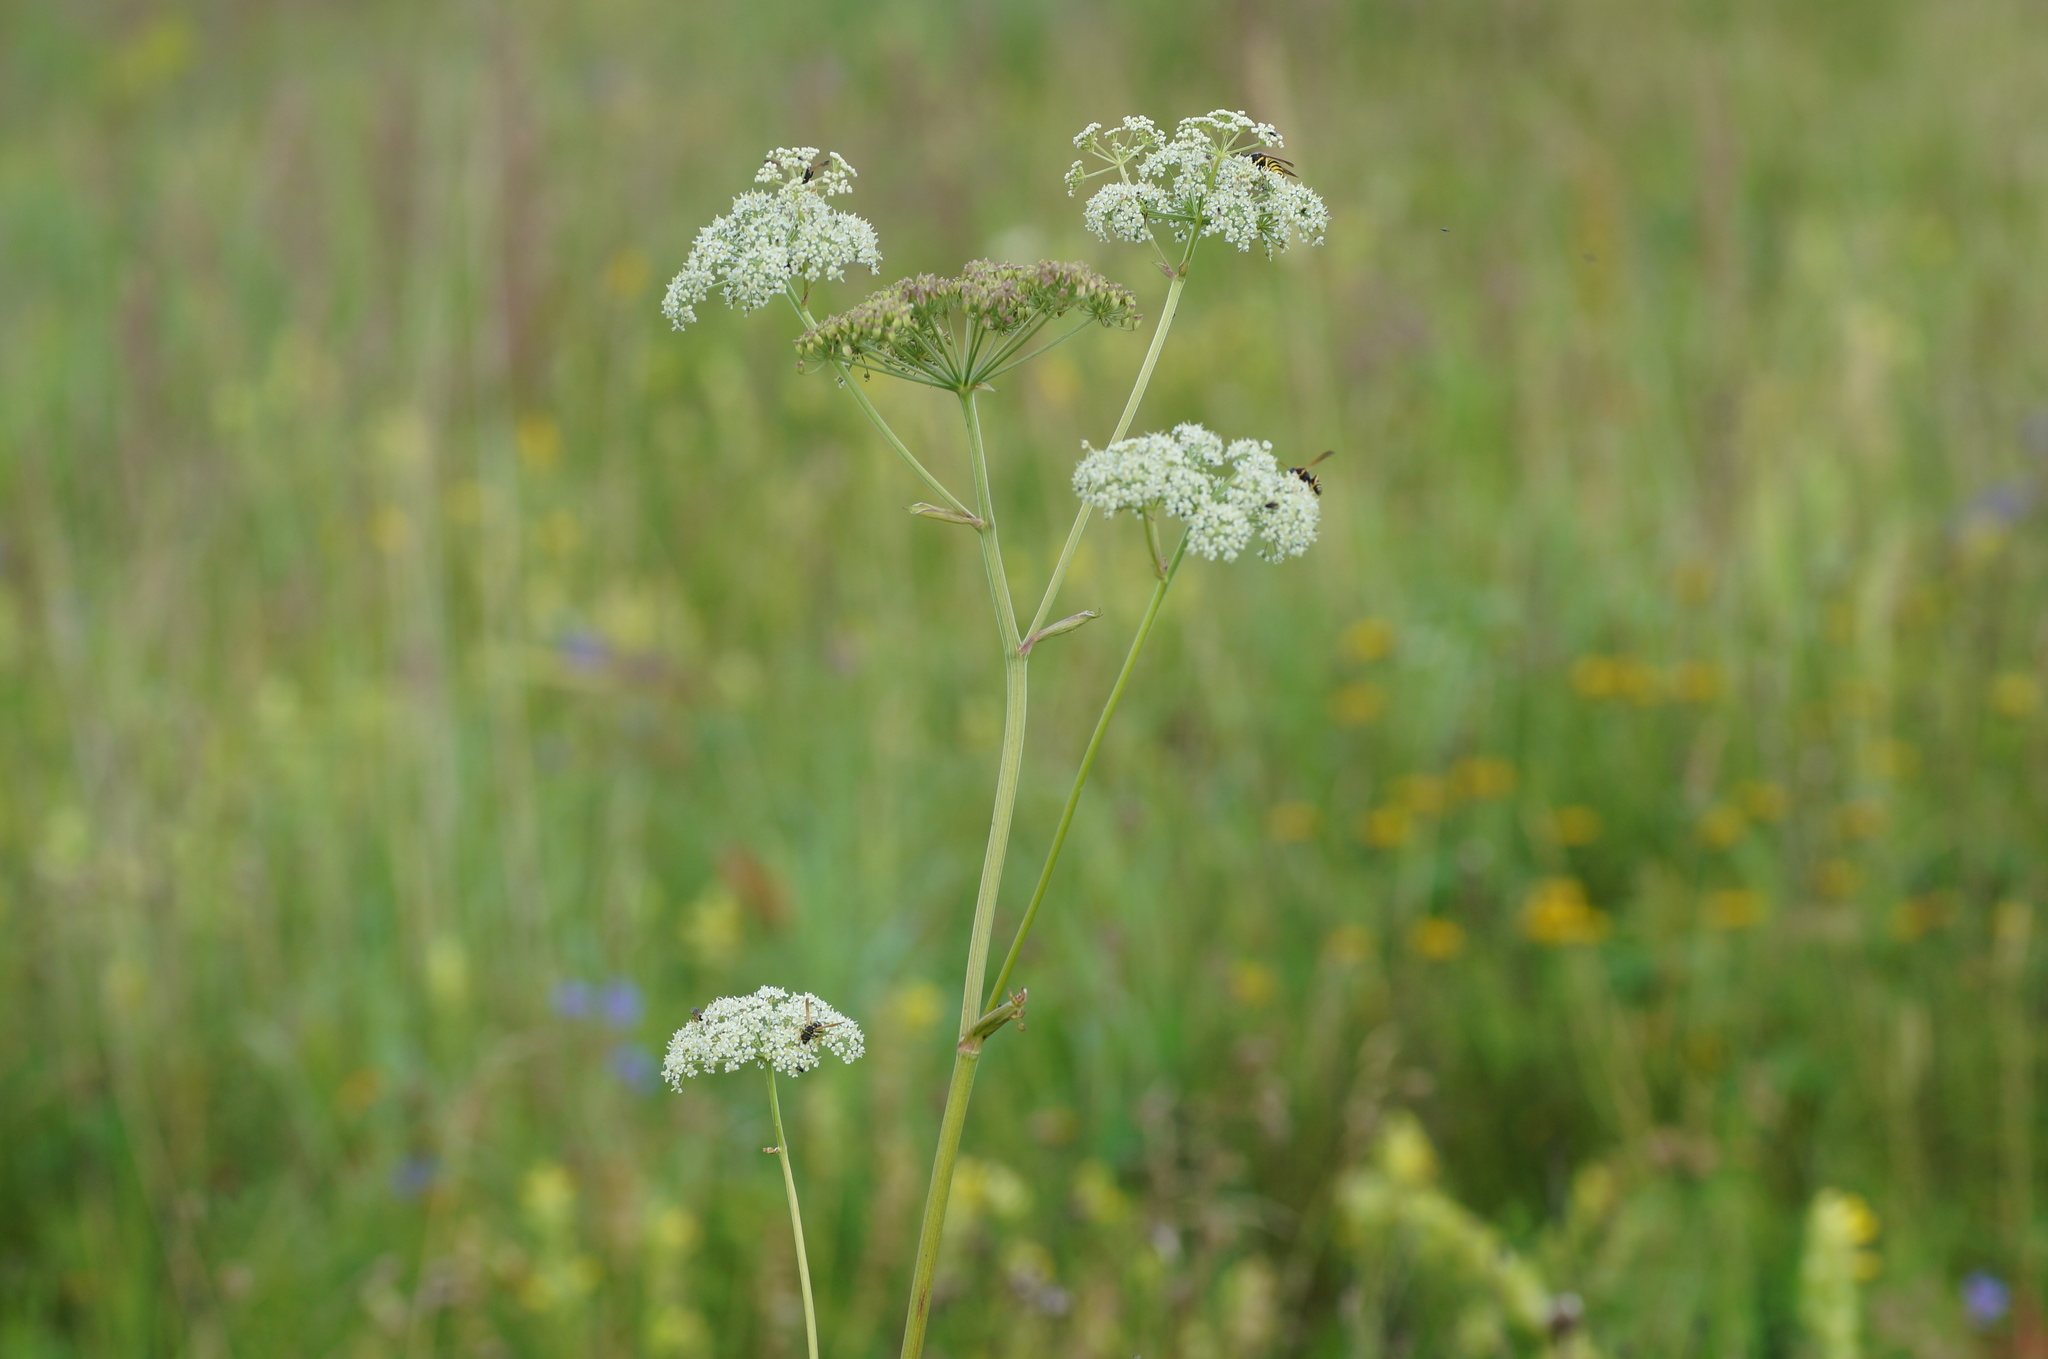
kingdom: Plantae
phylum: Tracheophyta
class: Magnoliopsida
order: Apiales
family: Apiaceae
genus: Ostericum
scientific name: Ostericum palustre
